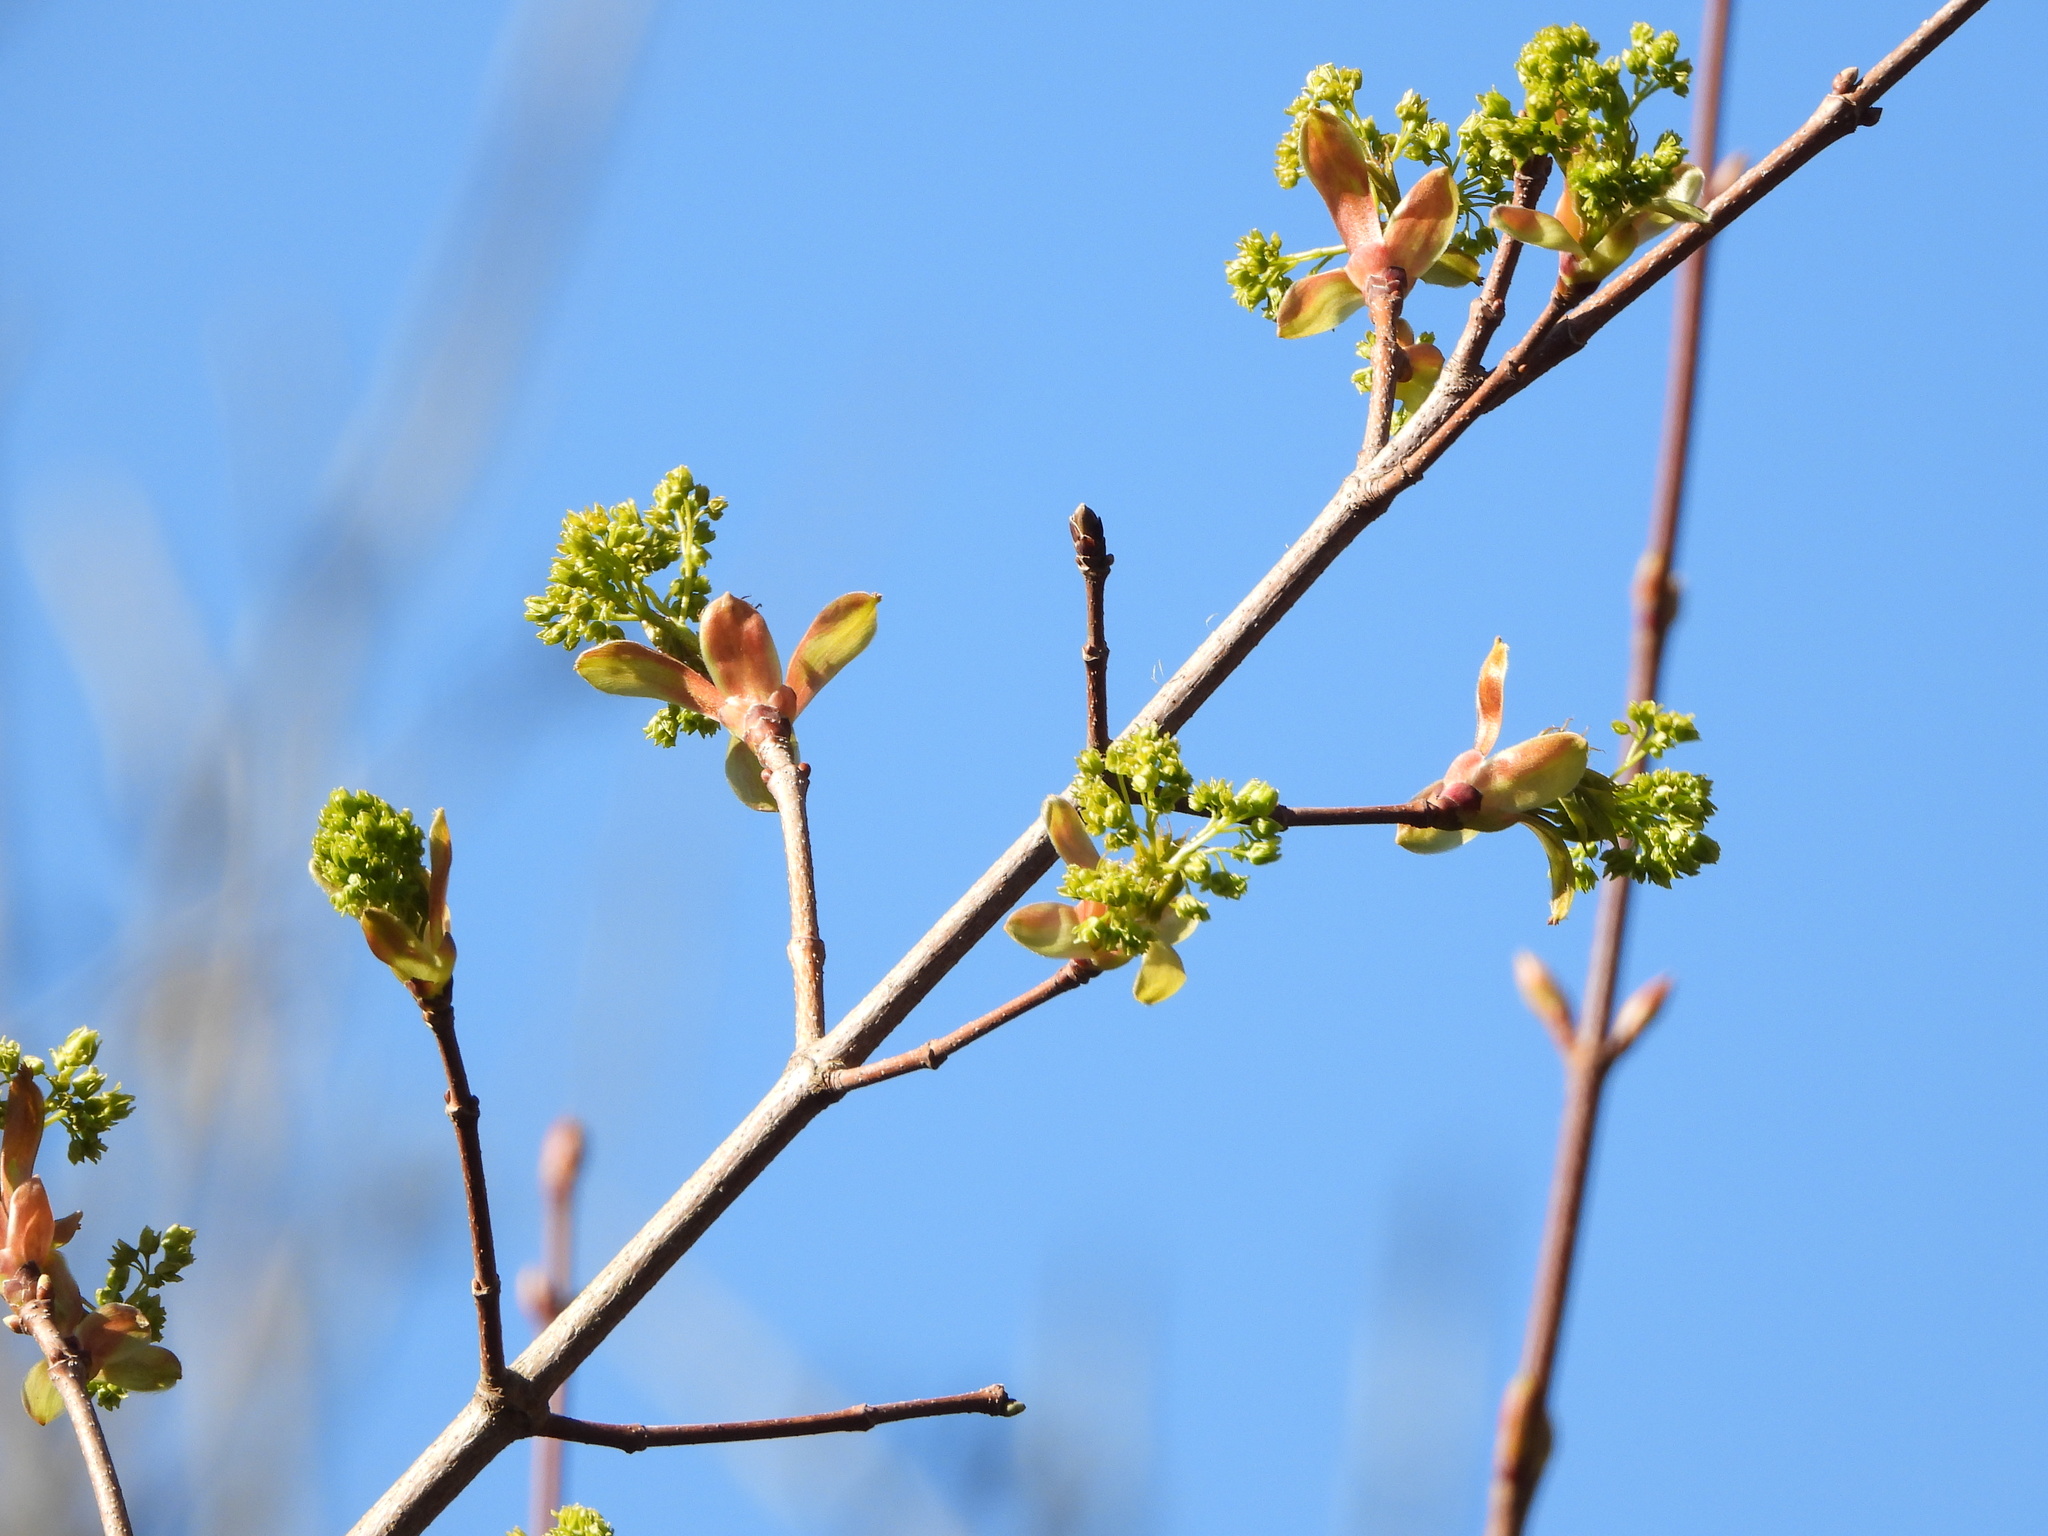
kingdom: Plantae
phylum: Tracheophyta
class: Magnoliopsida
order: Sapindales
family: Sapindaceae
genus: Acer
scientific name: Acer macrophyllum
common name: Oregon maple
